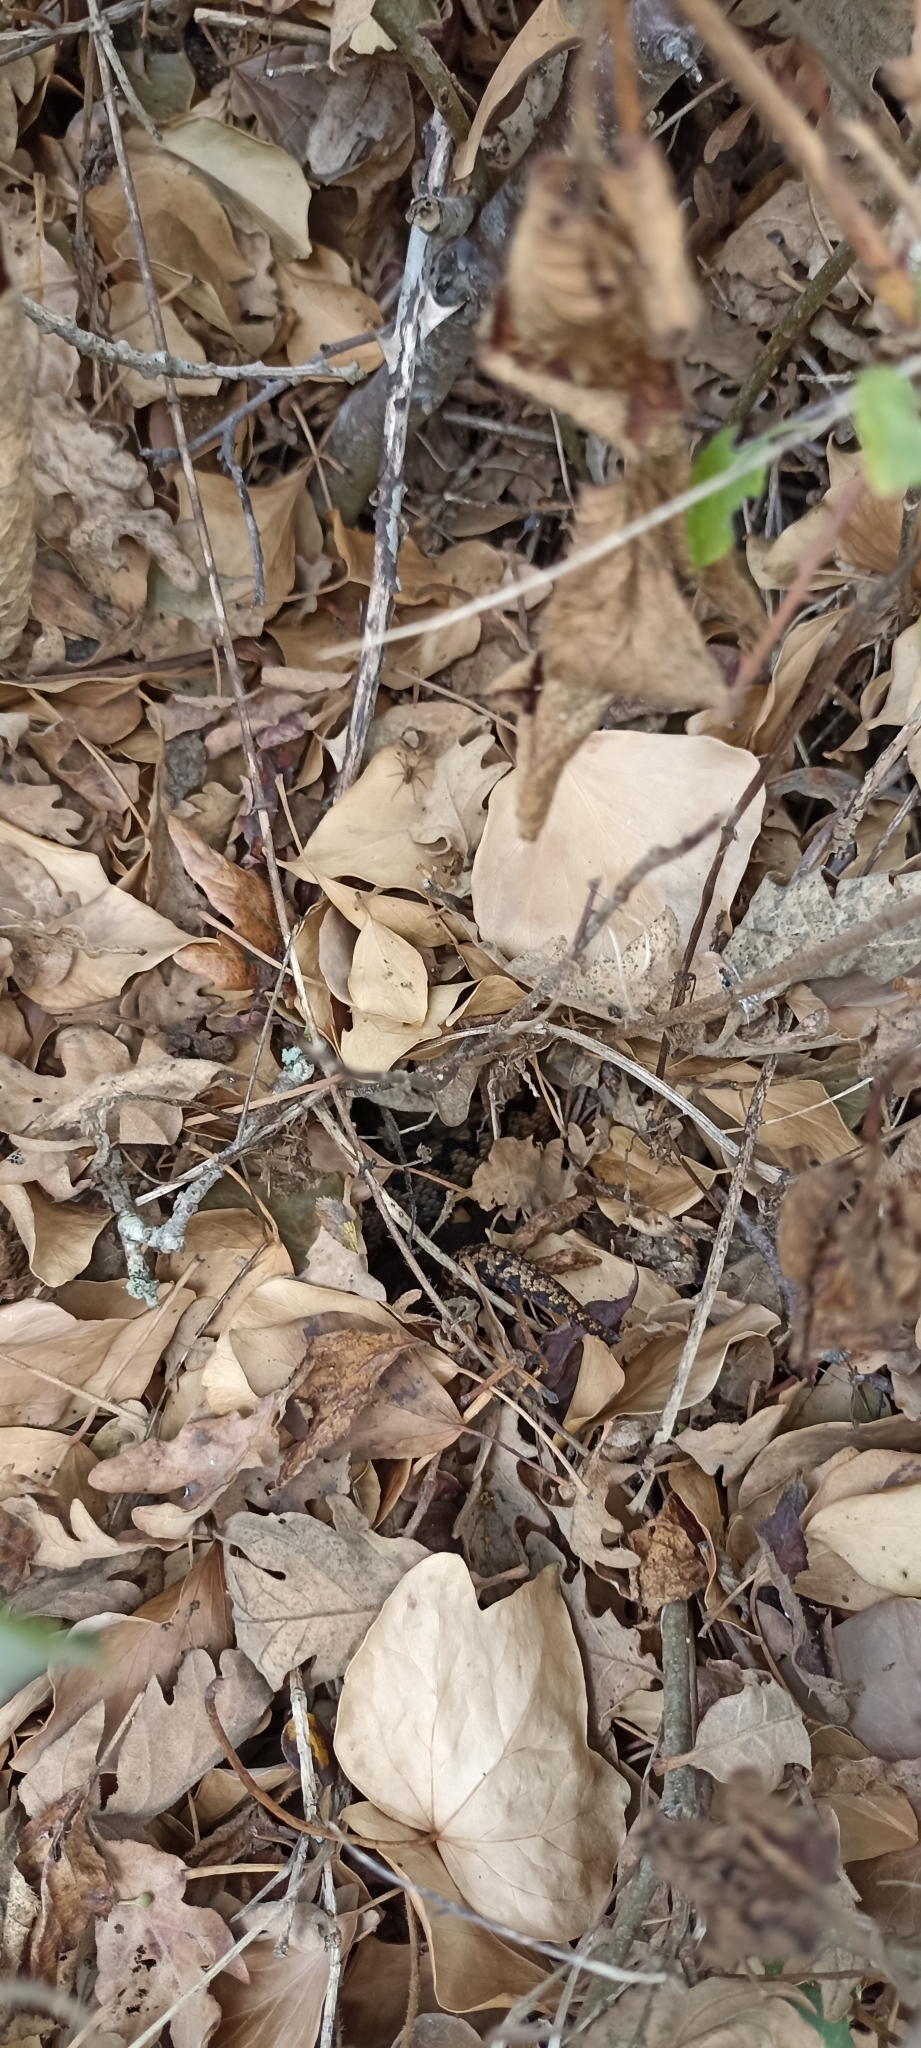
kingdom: Animalia
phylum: Chordata
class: Squamata
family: Viperidae
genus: Vipera
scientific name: Vipera berus
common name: Adder
